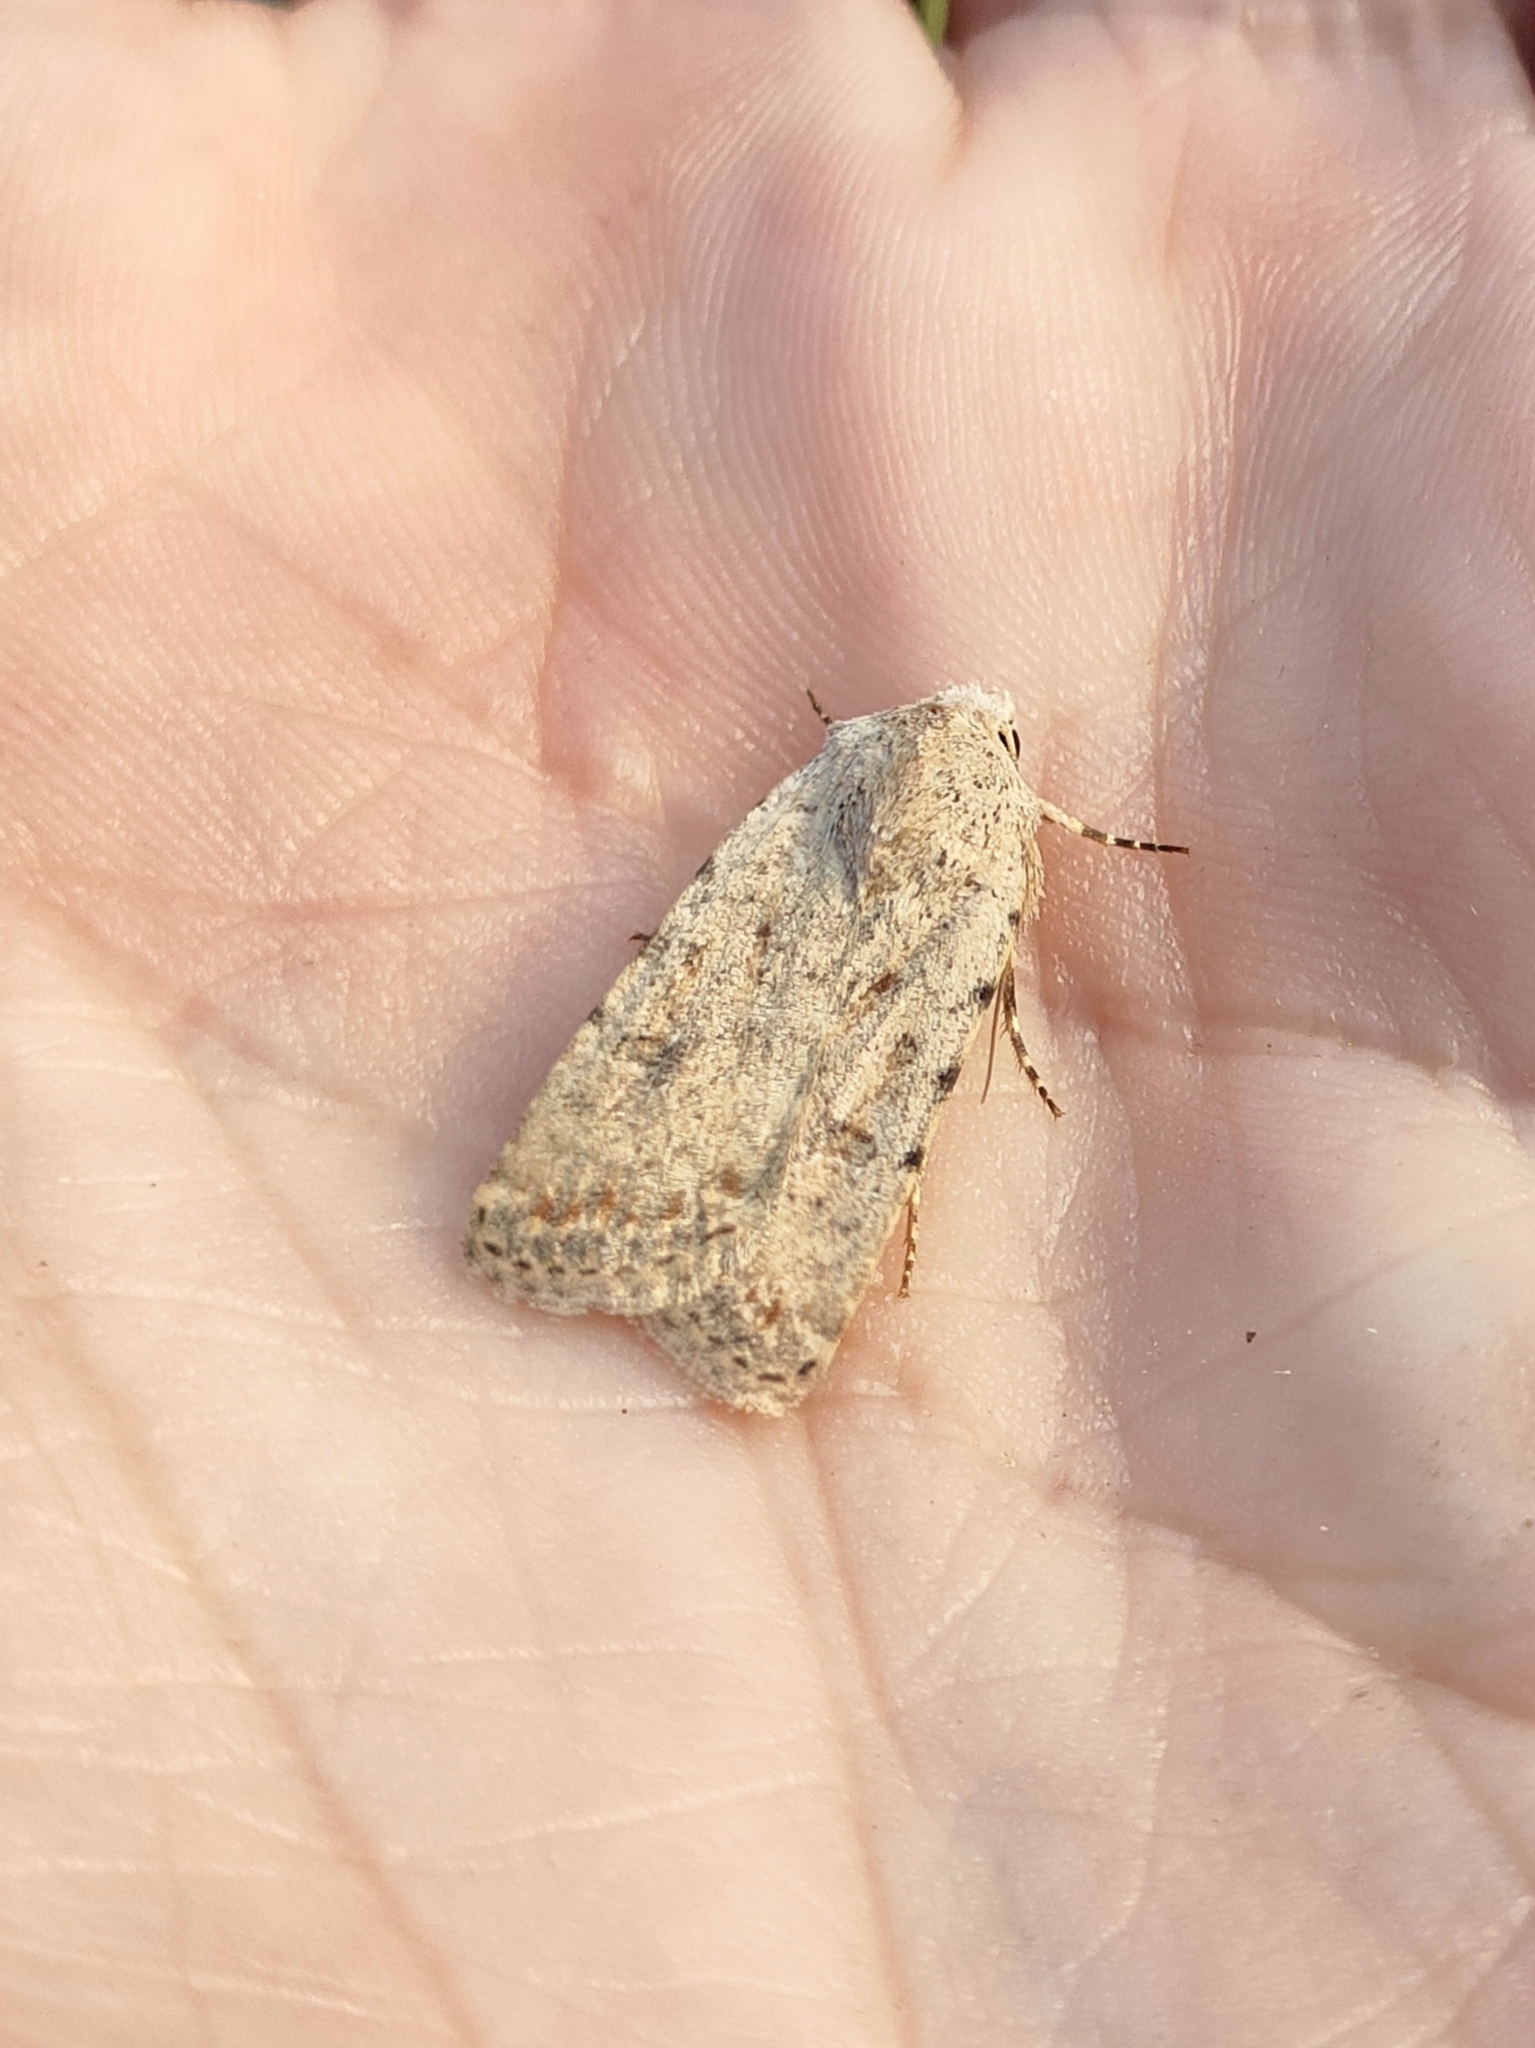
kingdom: Animalia
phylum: Arthropoda
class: Insecta
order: Lepidoptera
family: Noctuidae
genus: Caradrina
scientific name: Caradrina clavipalpis
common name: Pale mottled willow
